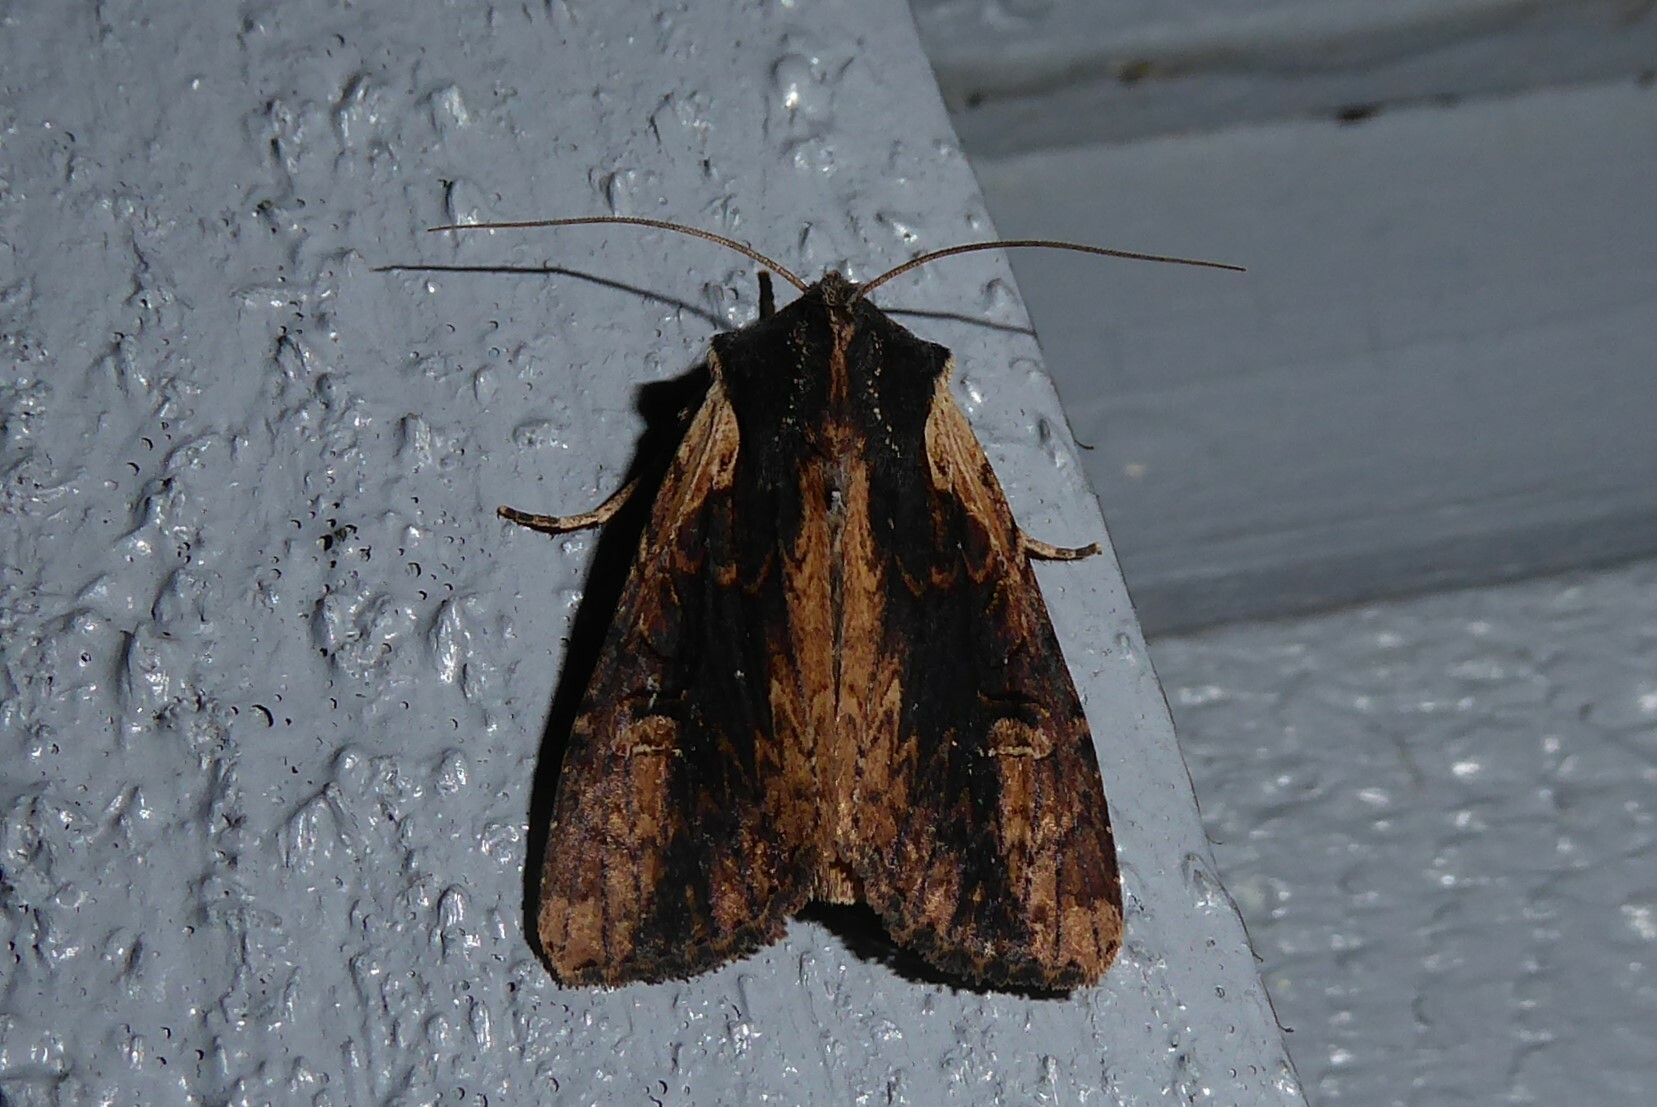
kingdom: Animalia
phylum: Arthropoda
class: Insecta
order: Lepidoptera
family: Noctuidae
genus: Ichneutica
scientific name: Ichneutica omoplaca
